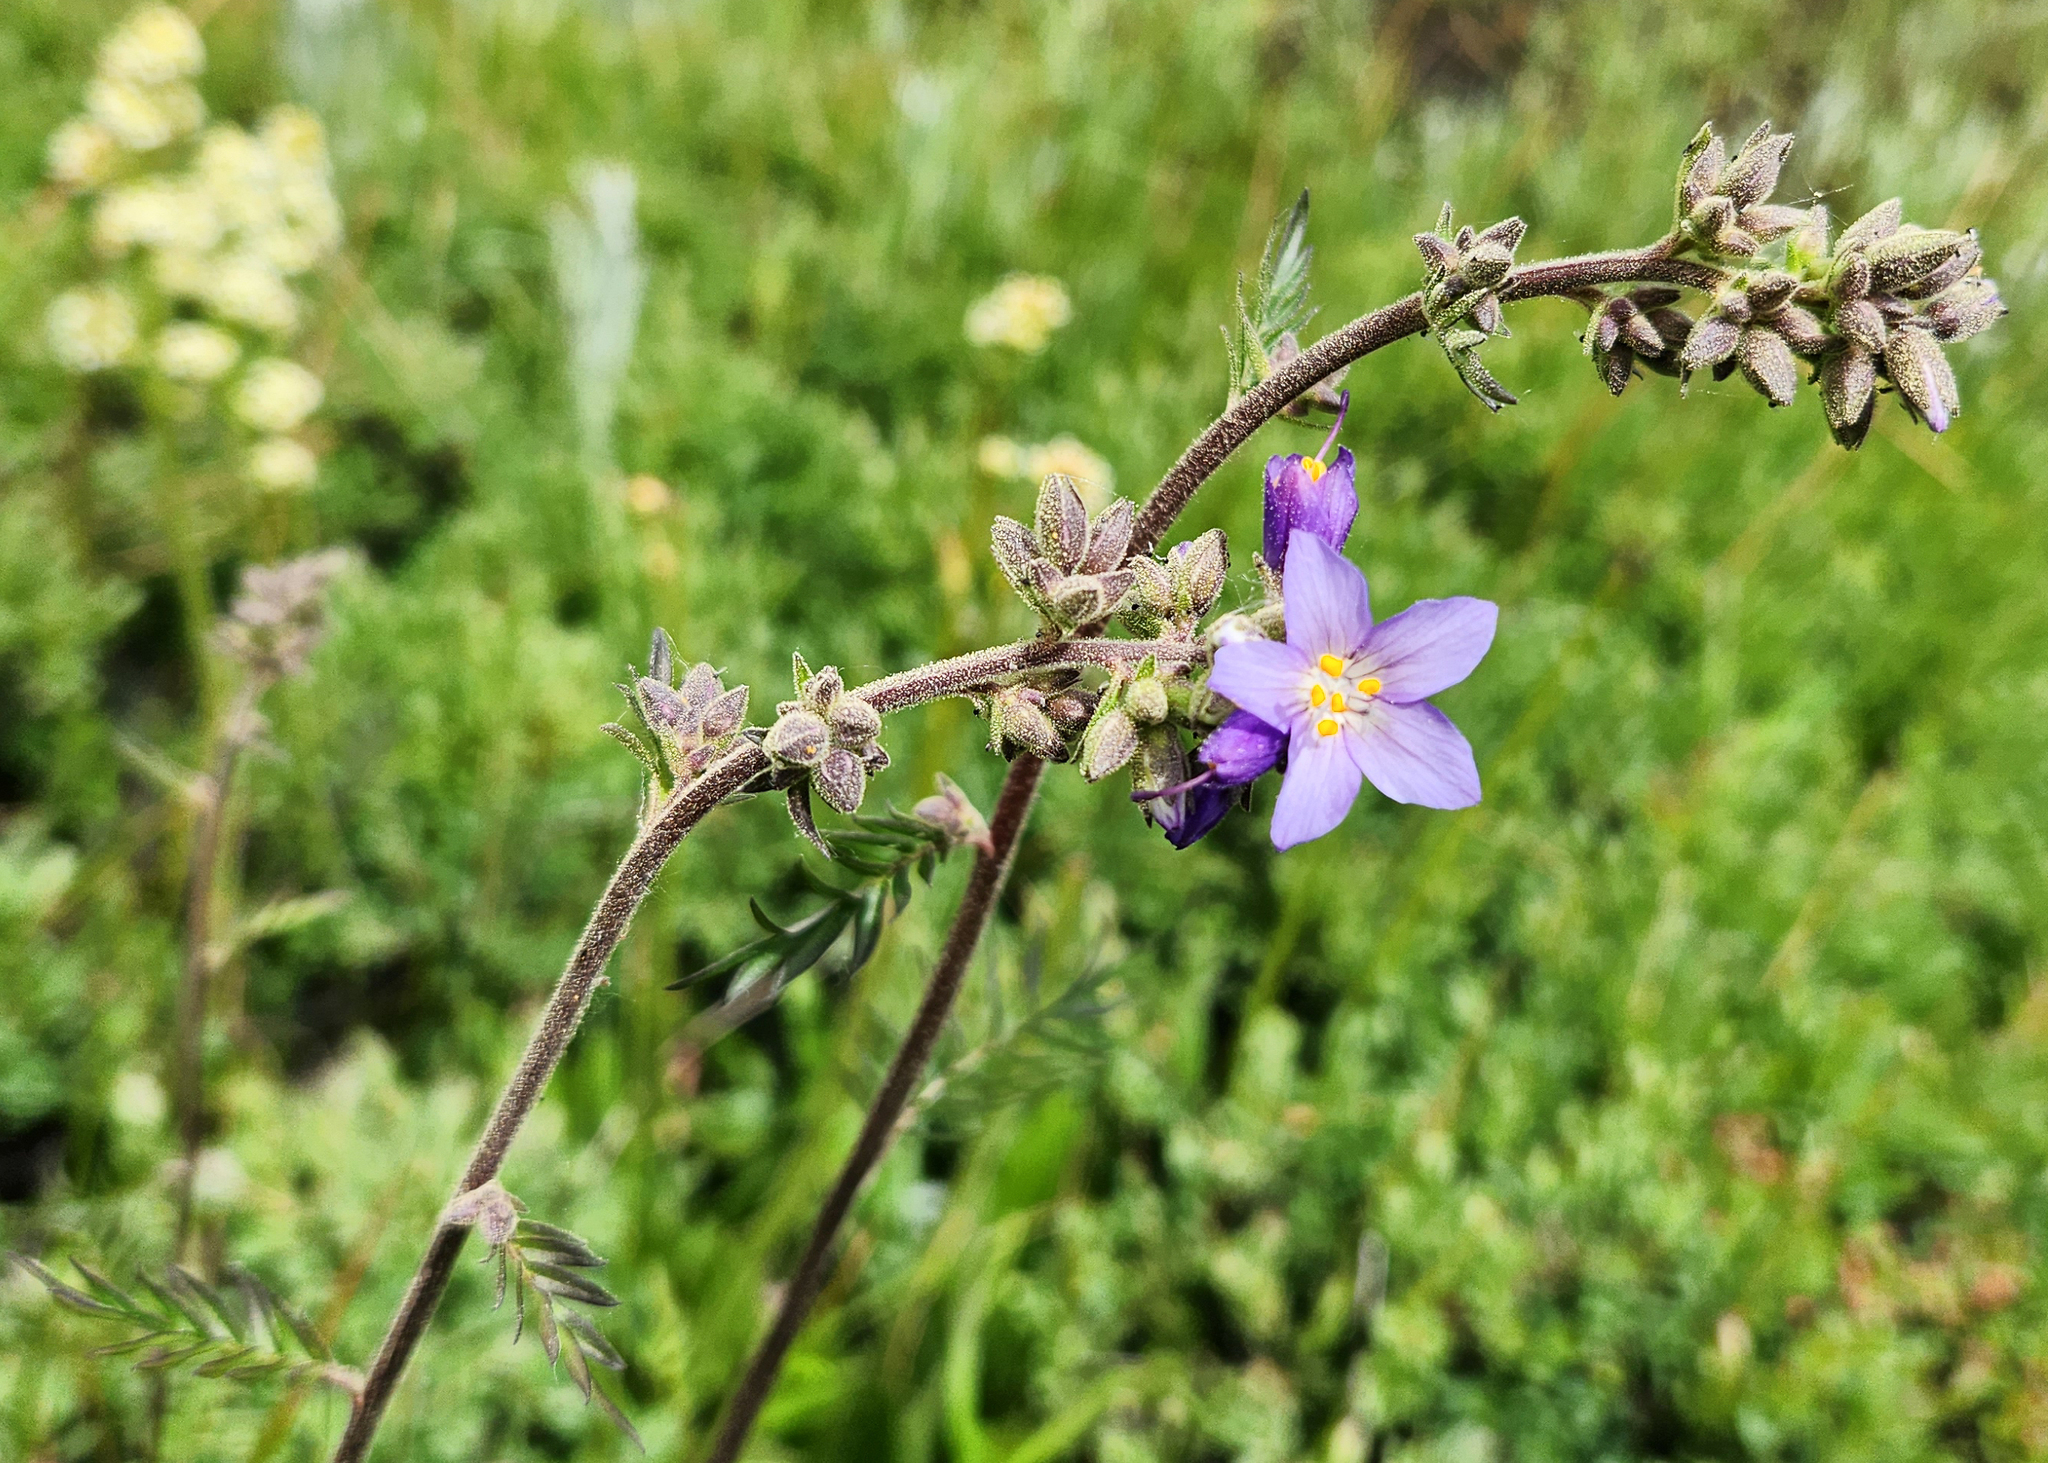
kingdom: Plantae
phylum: Tracheophyta
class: Magnoliopsida
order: Ericales
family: Polemoniaceae
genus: Polemonium
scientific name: Polemonium occidentale
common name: Western jacob's-ladder
